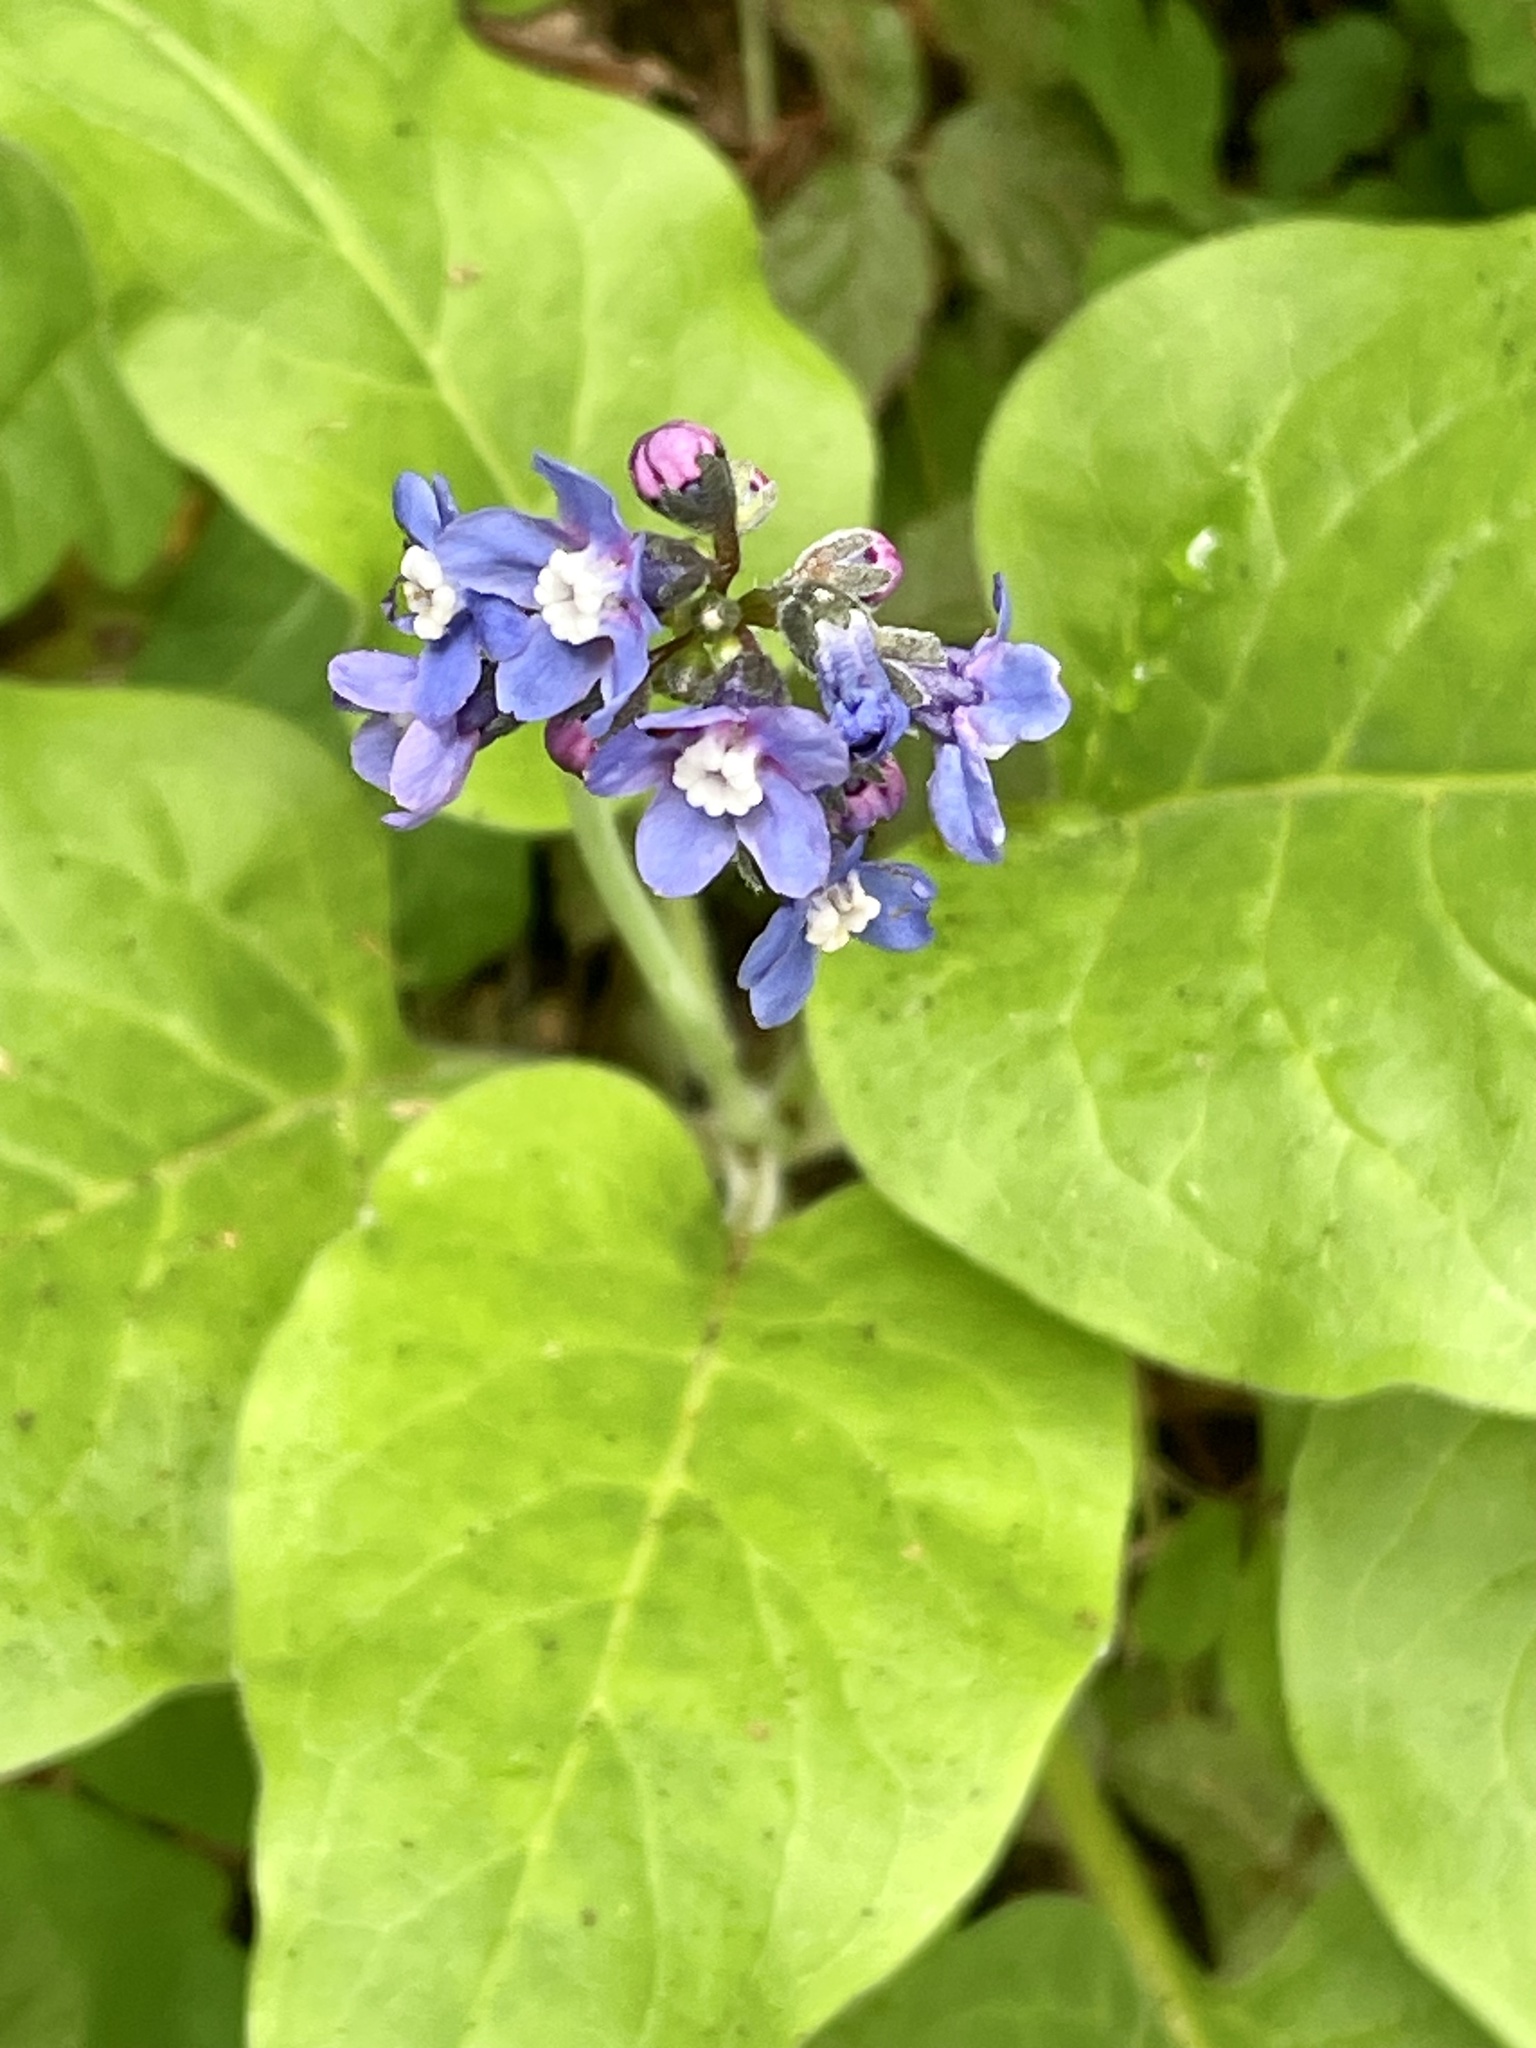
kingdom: Plantae
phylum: Tracheophyta
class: Magnoliopsida
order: Boraginales
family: Boraginaceae
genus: Adelinia
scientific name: Adelinia grande
